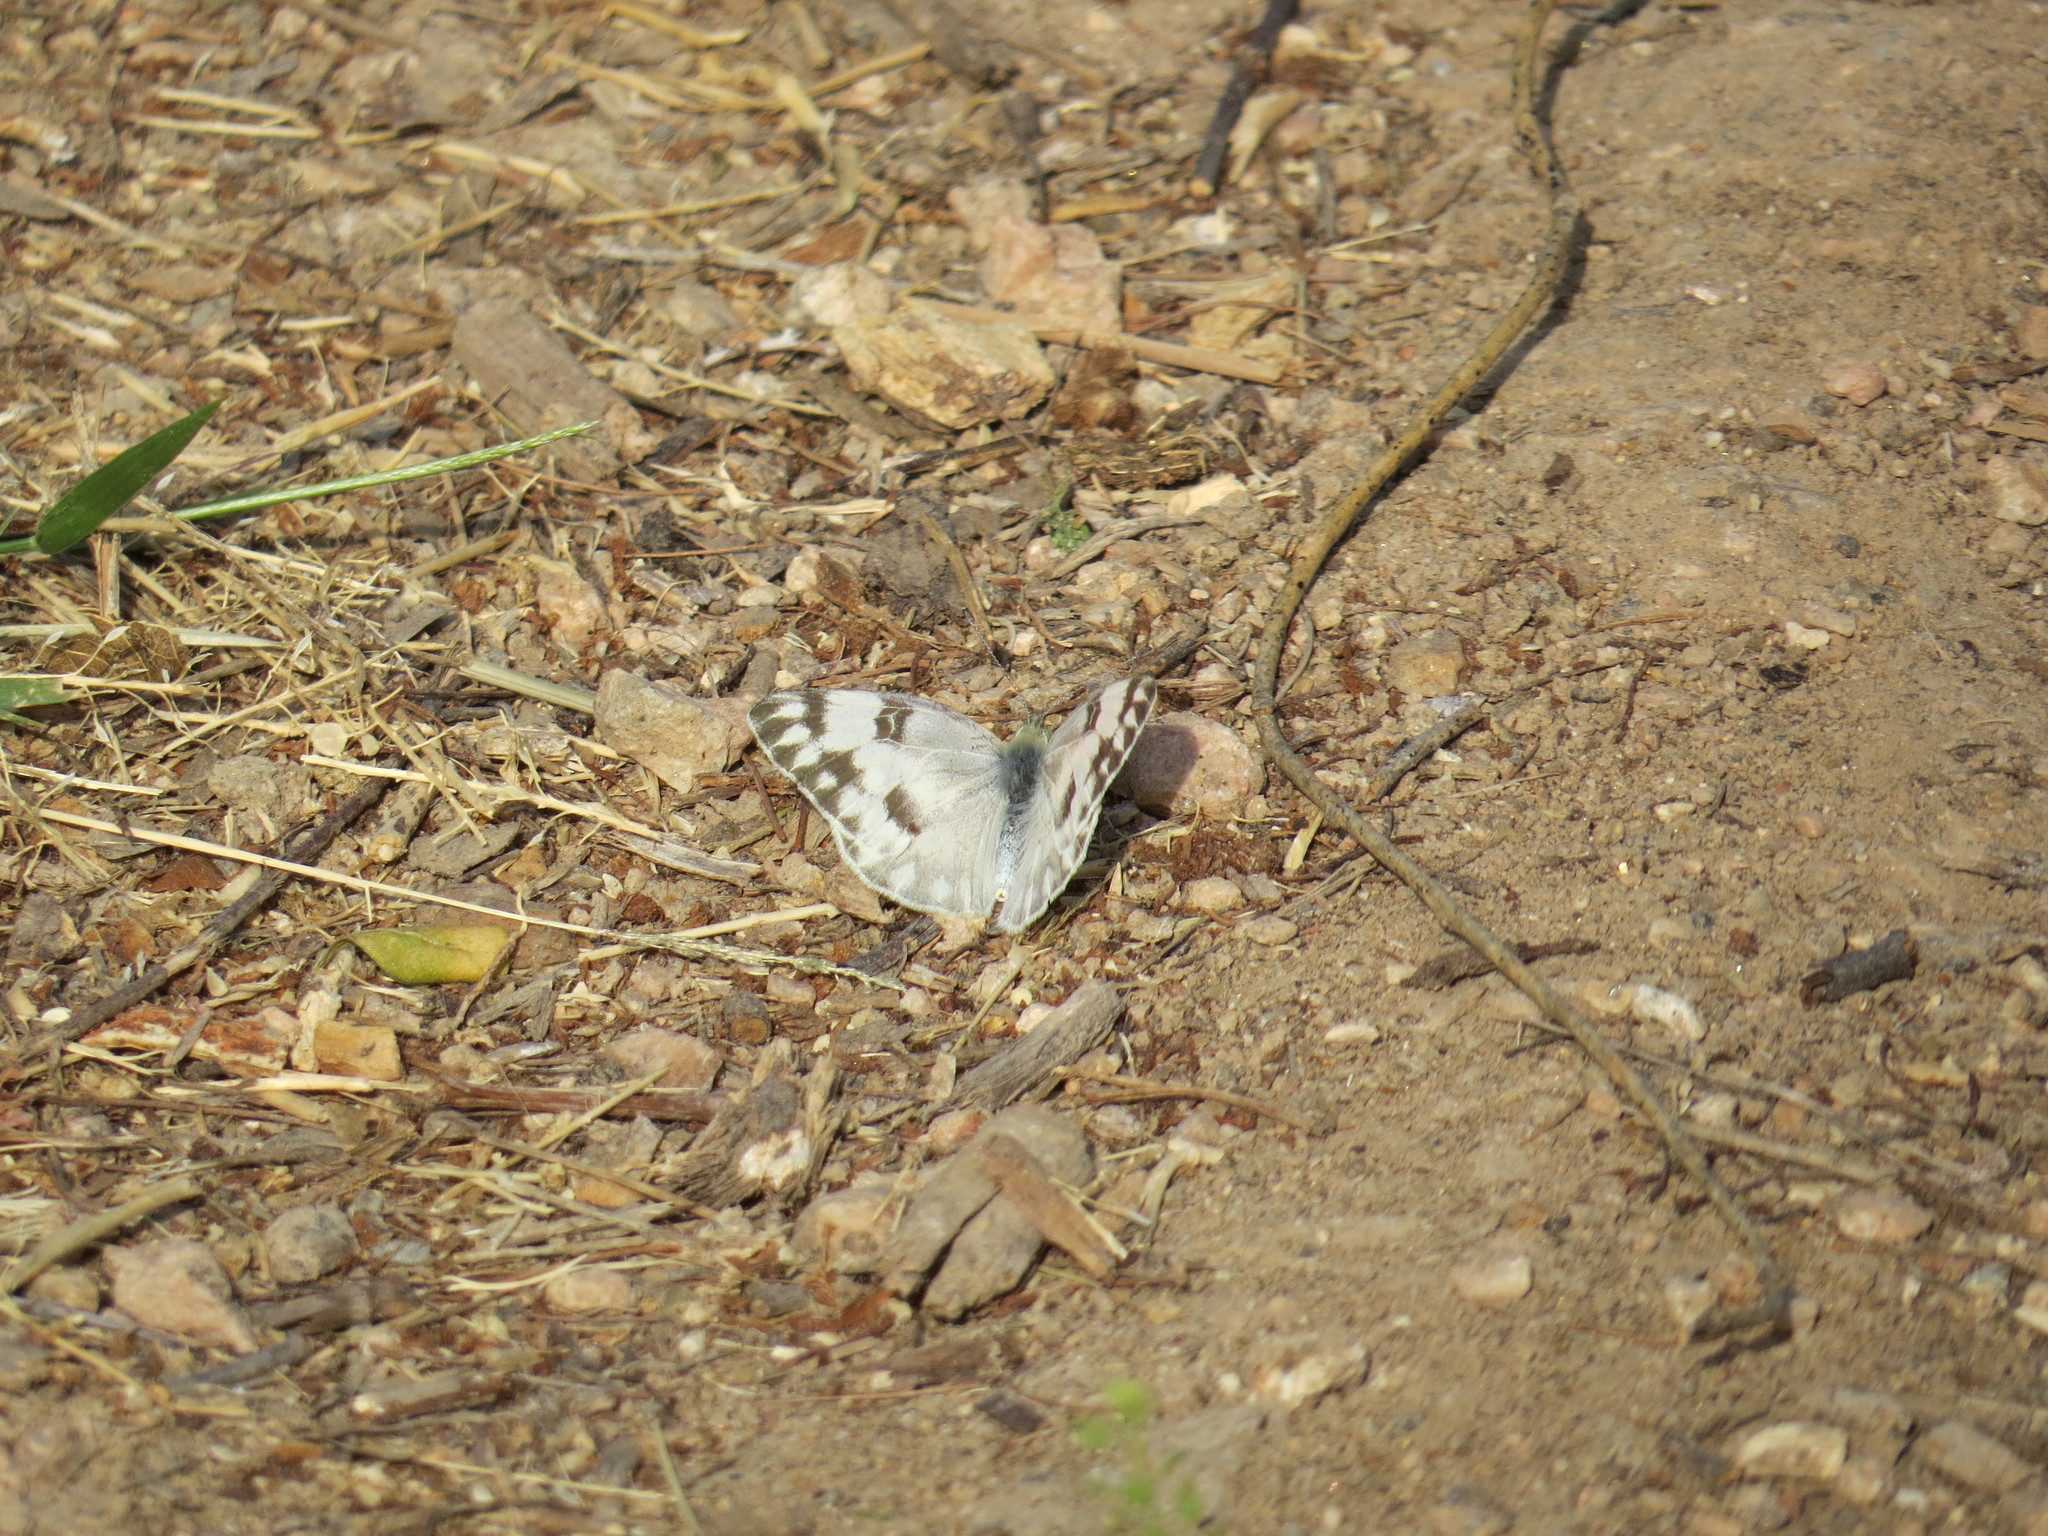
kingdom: Animalia
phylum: Arthropoda
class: Insecta
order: Lepidoptera
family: Pieridae
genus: Pontia
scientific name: Pontia protodice
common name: Checkered white
